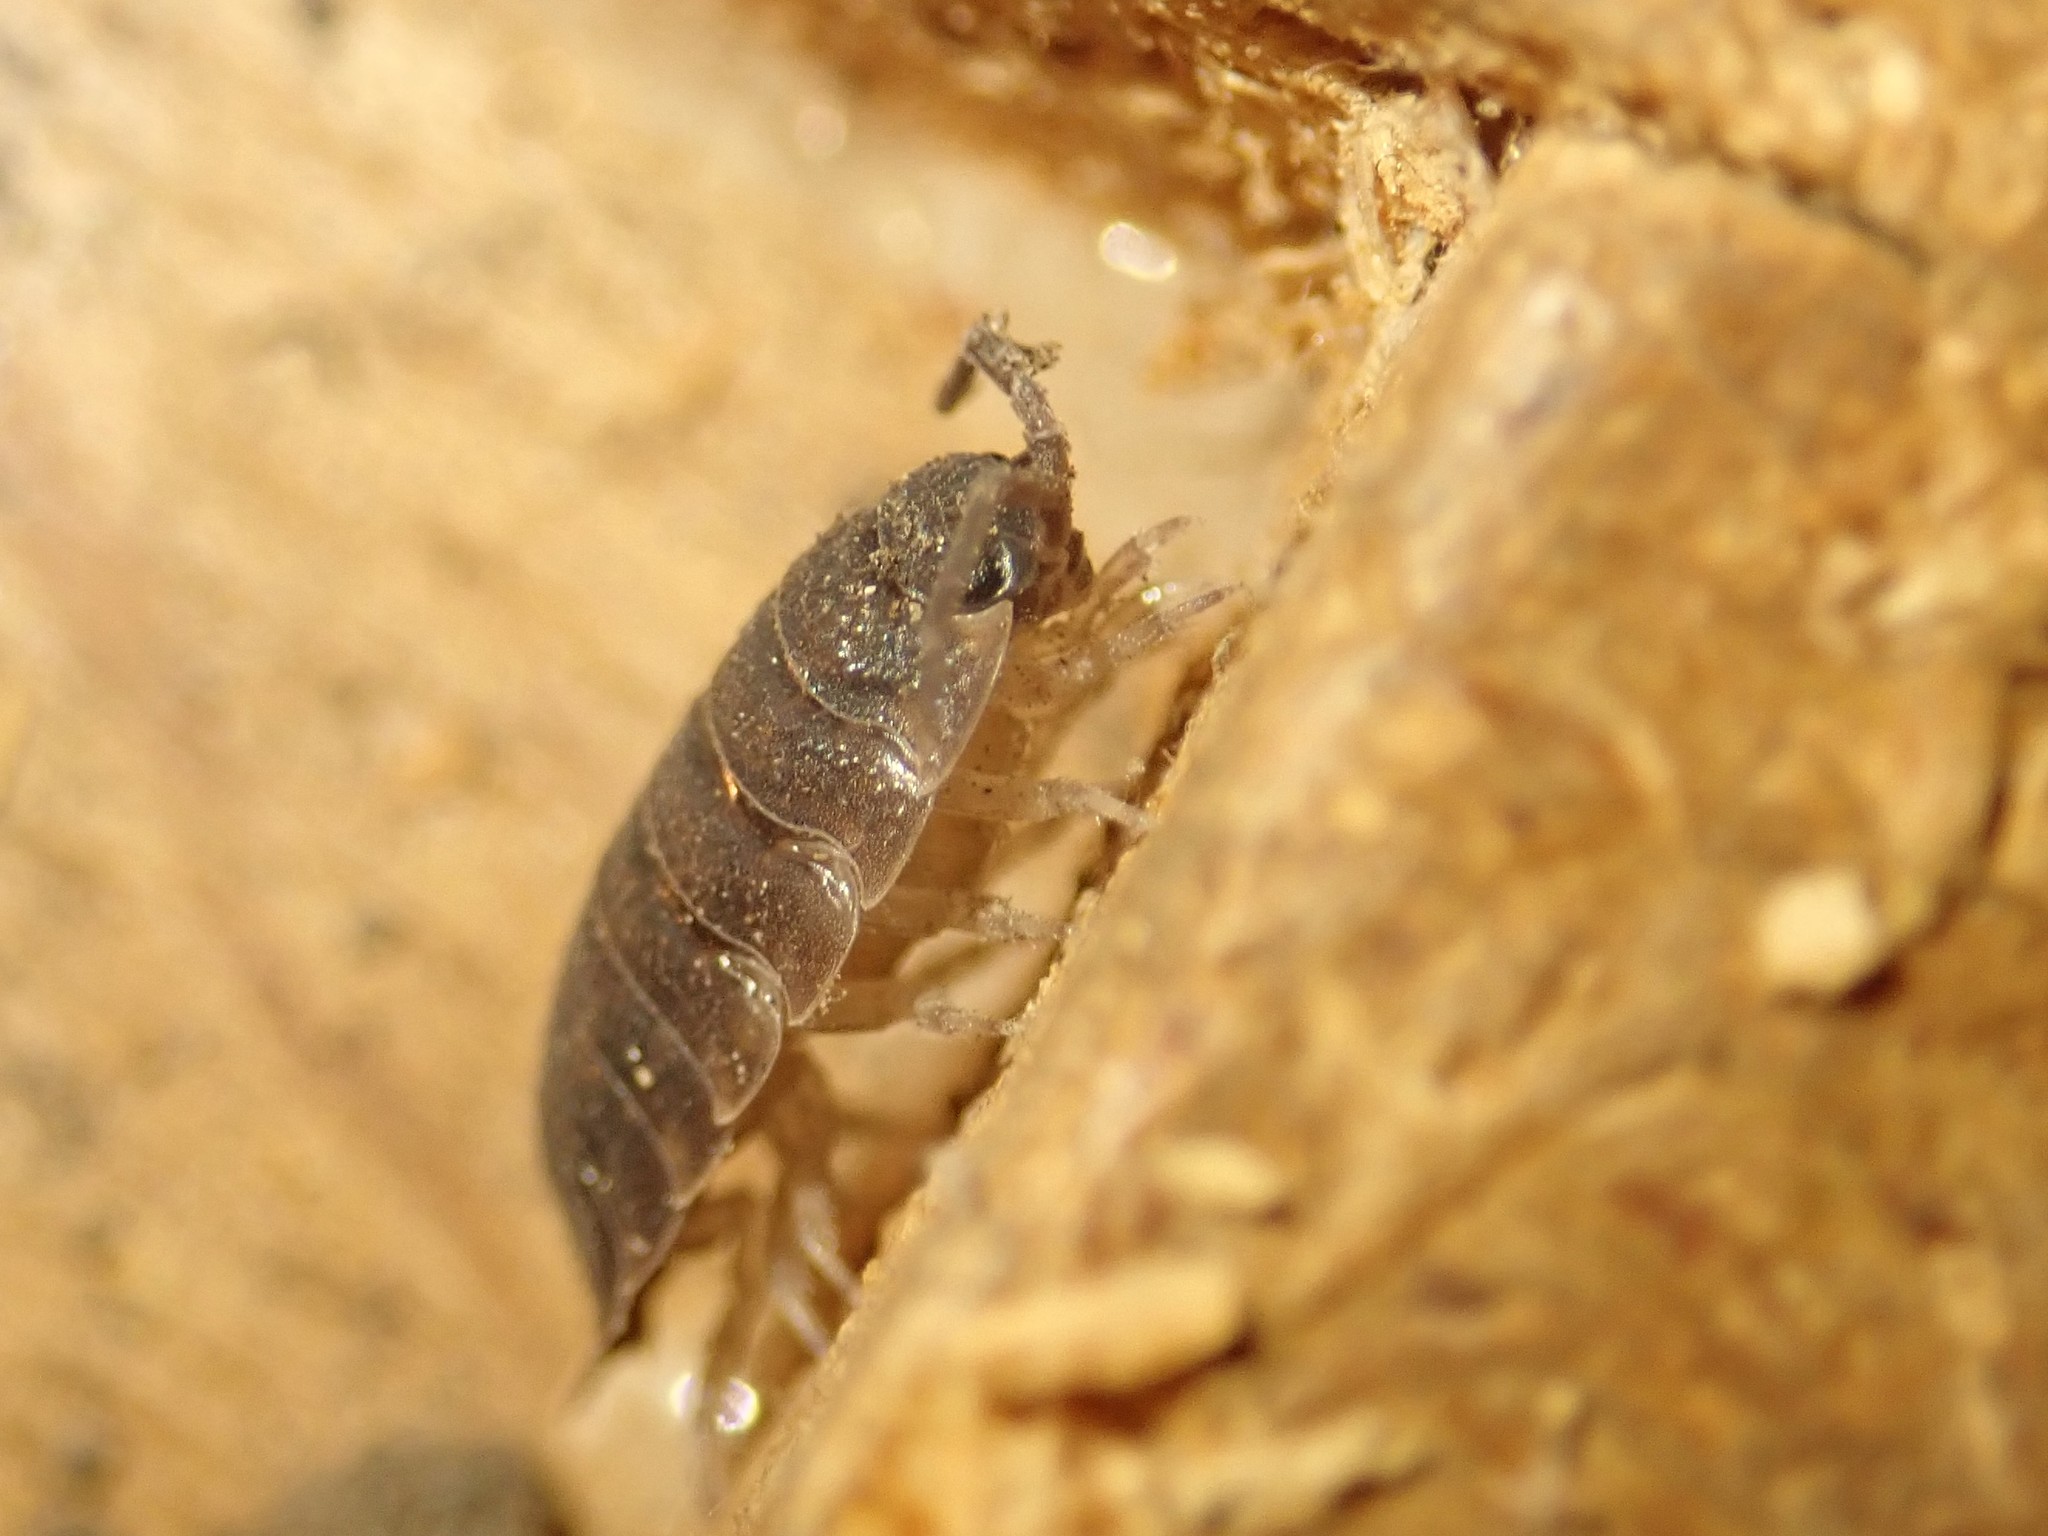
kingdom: Animalia
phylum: Arthropoda
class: Malacostraca
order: Isopoda
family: Porcellionidae
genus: Porcellio
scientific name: Porcellio scaber
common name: Common rough woodlouse
